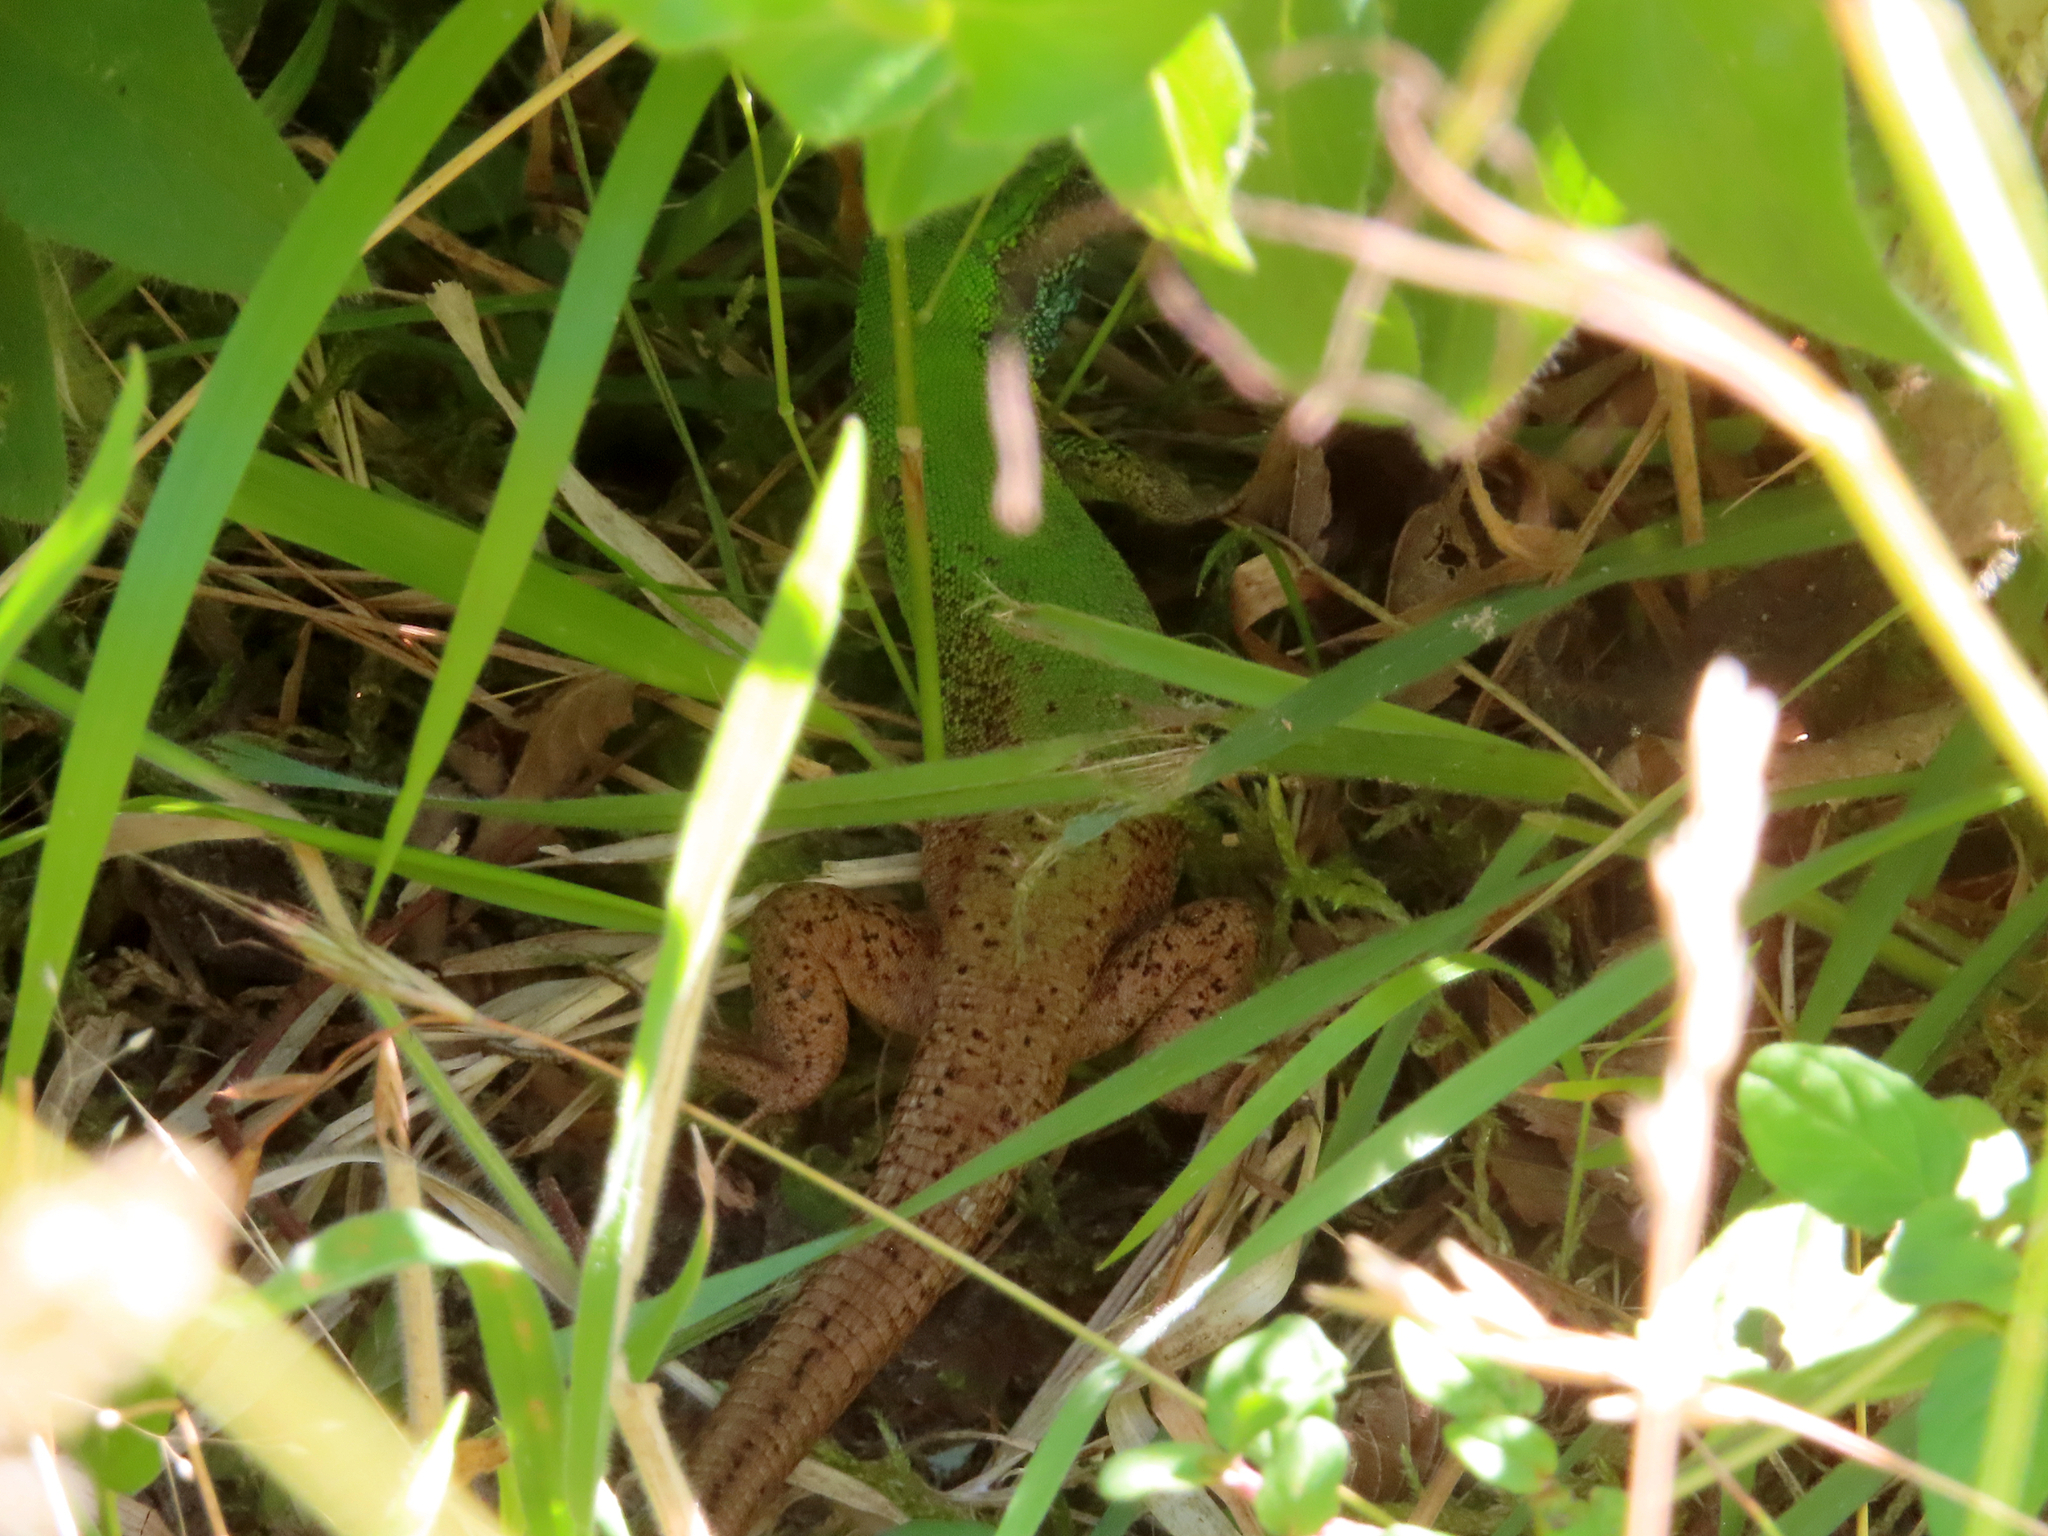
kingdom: Animalia
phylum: Chordata
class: Squamata
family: Lacertidae
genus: Lacerta
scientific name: Lacerta viridis
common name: European green lizard
